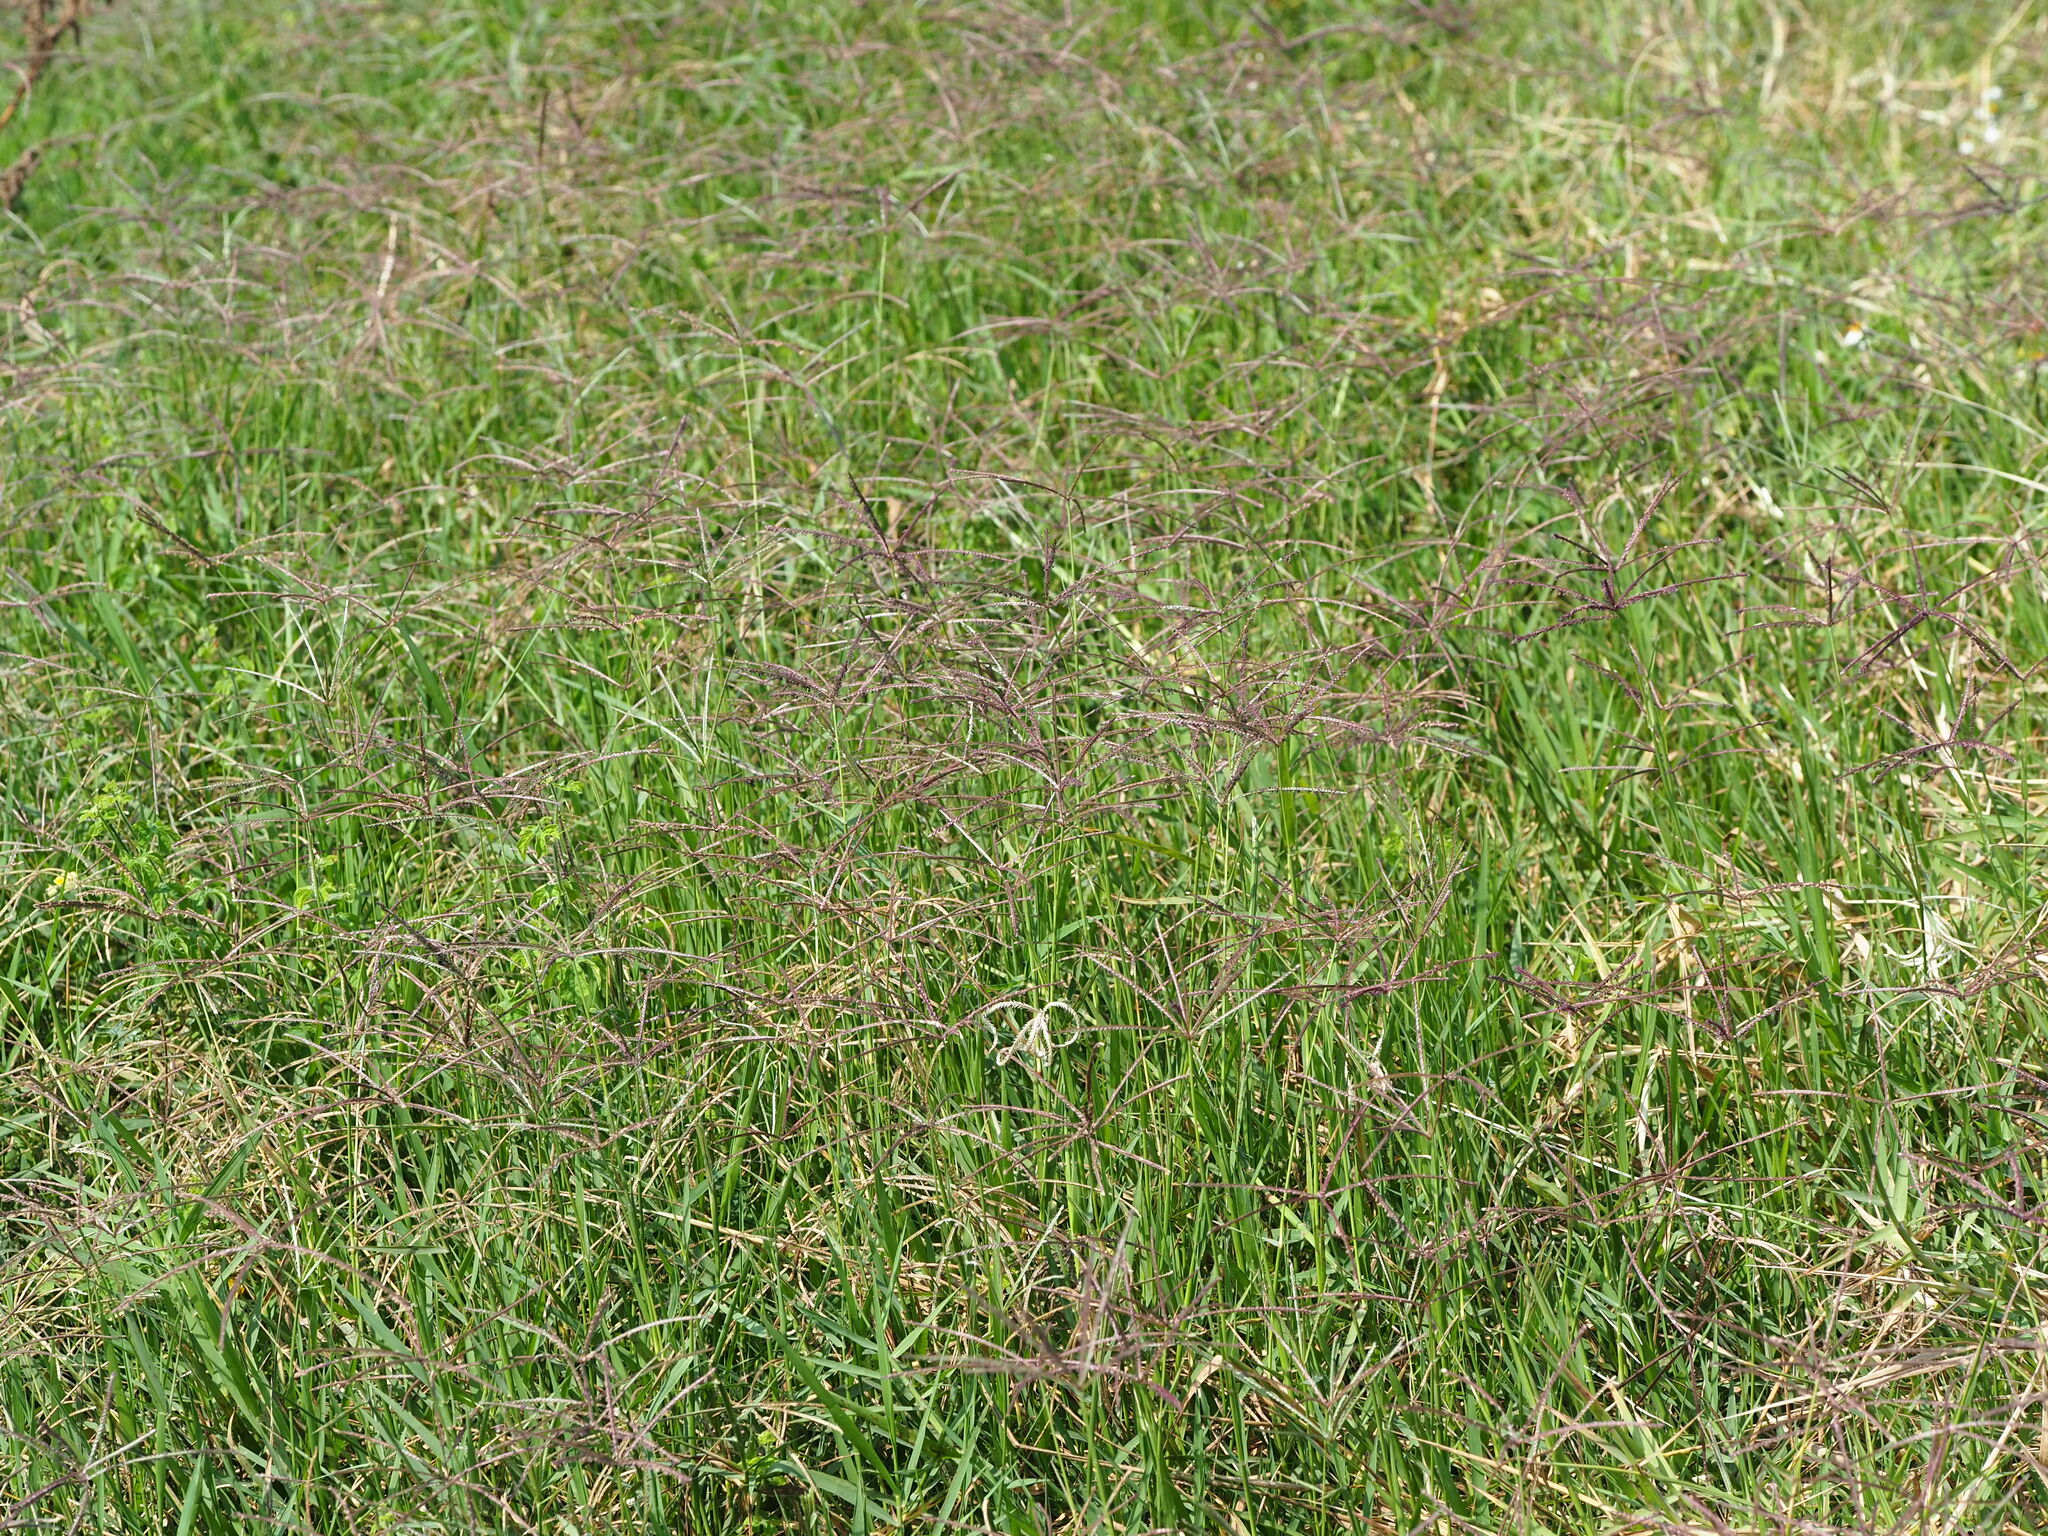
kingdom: Plantae
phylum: Tracheophyta
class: Liliopsida
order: Poales
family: Poaceae
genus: Cynodon
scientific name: Cynodon nlemfuensis
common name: African bermudagrass
